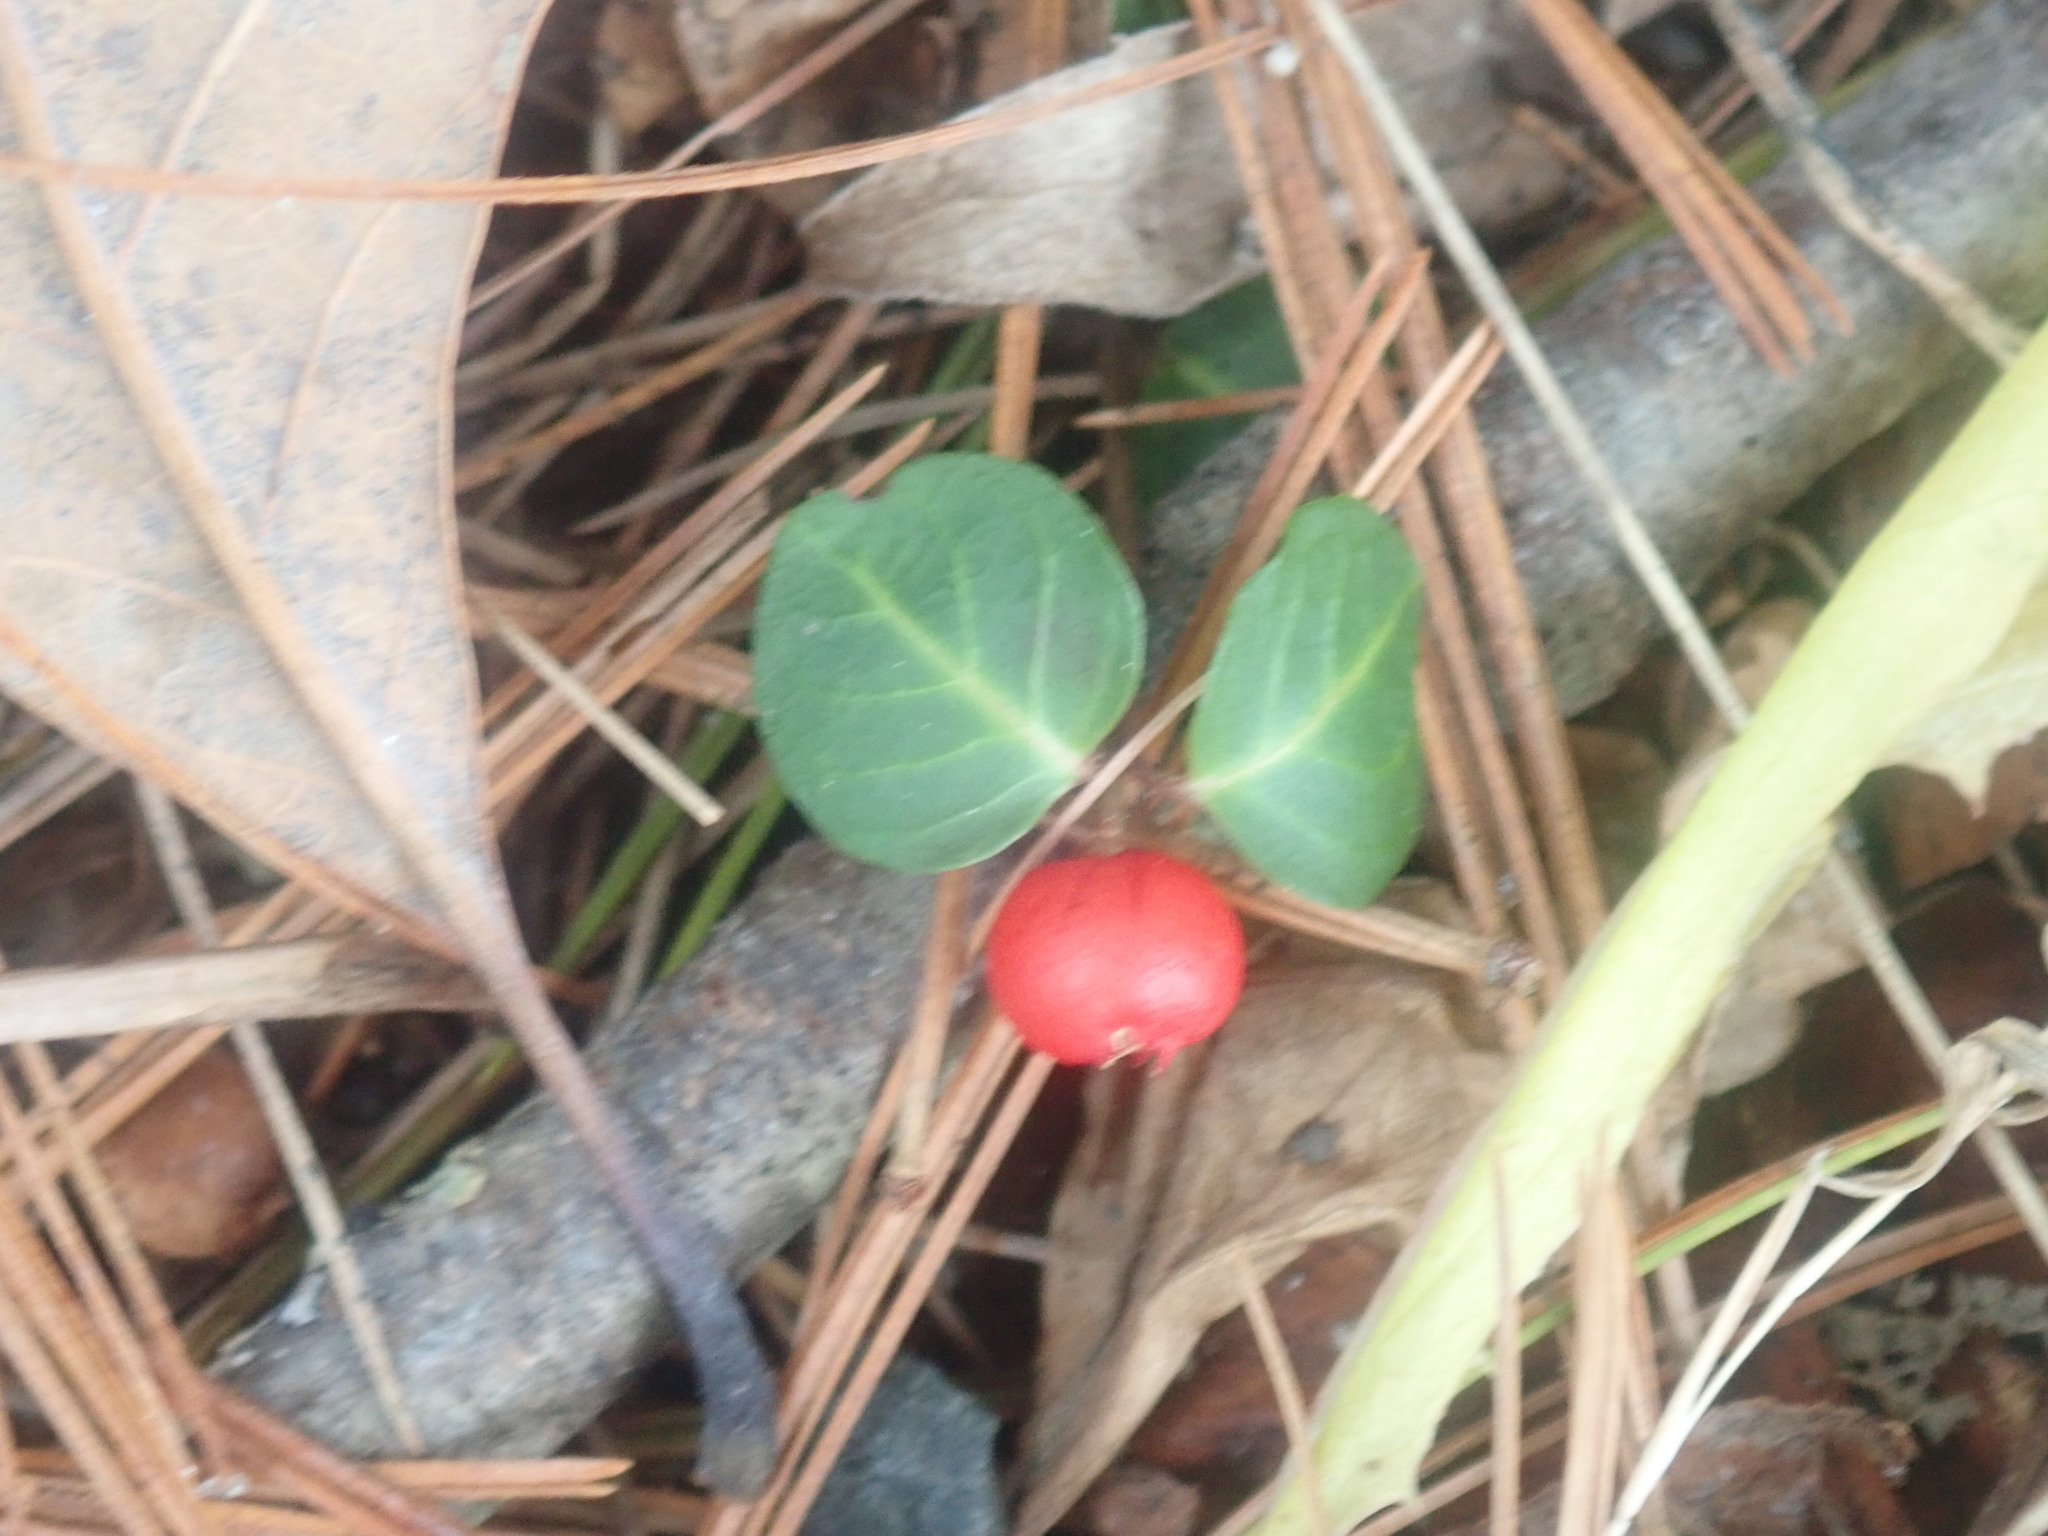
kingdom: Plantae
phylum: Tracheophyta
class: Magnoliopsida
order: Gentianales
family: Rubiaceae
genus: Mitchella
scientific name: Mitchella repens
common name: Partridge-berry
